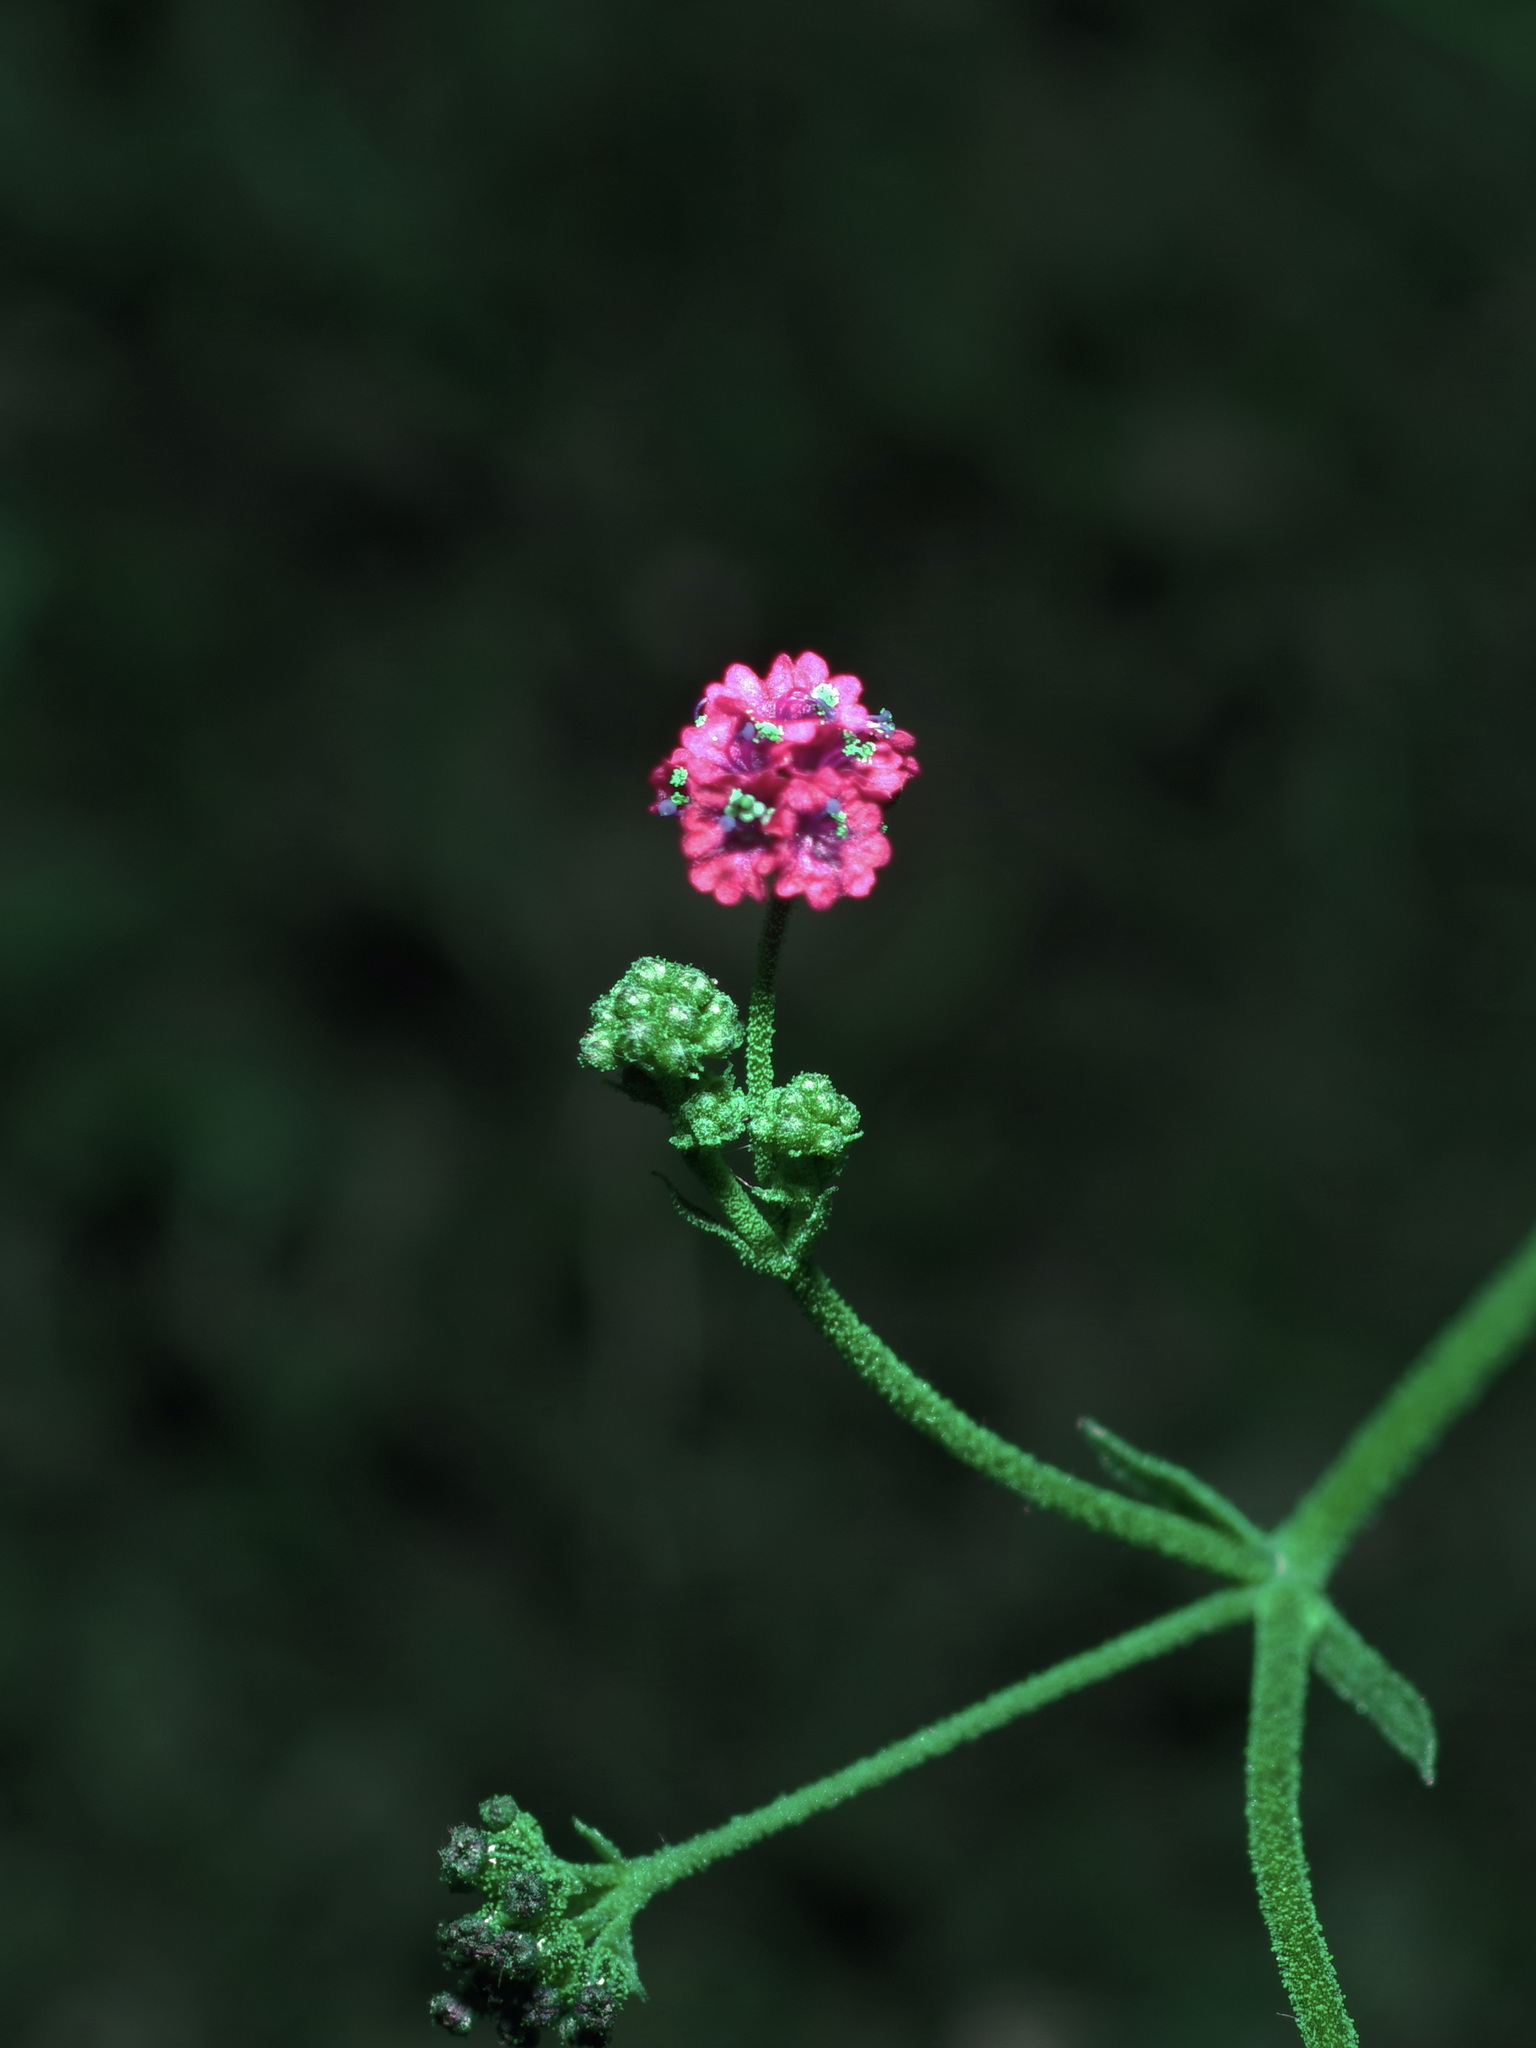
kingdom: Plantae
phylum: Tracheophyta
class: Magnoliopsida
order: Caryophyllales
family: Nyctaginaceae
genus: Boerhavia
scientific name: Boerhavia coccinea
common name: Scarlet spiderling
